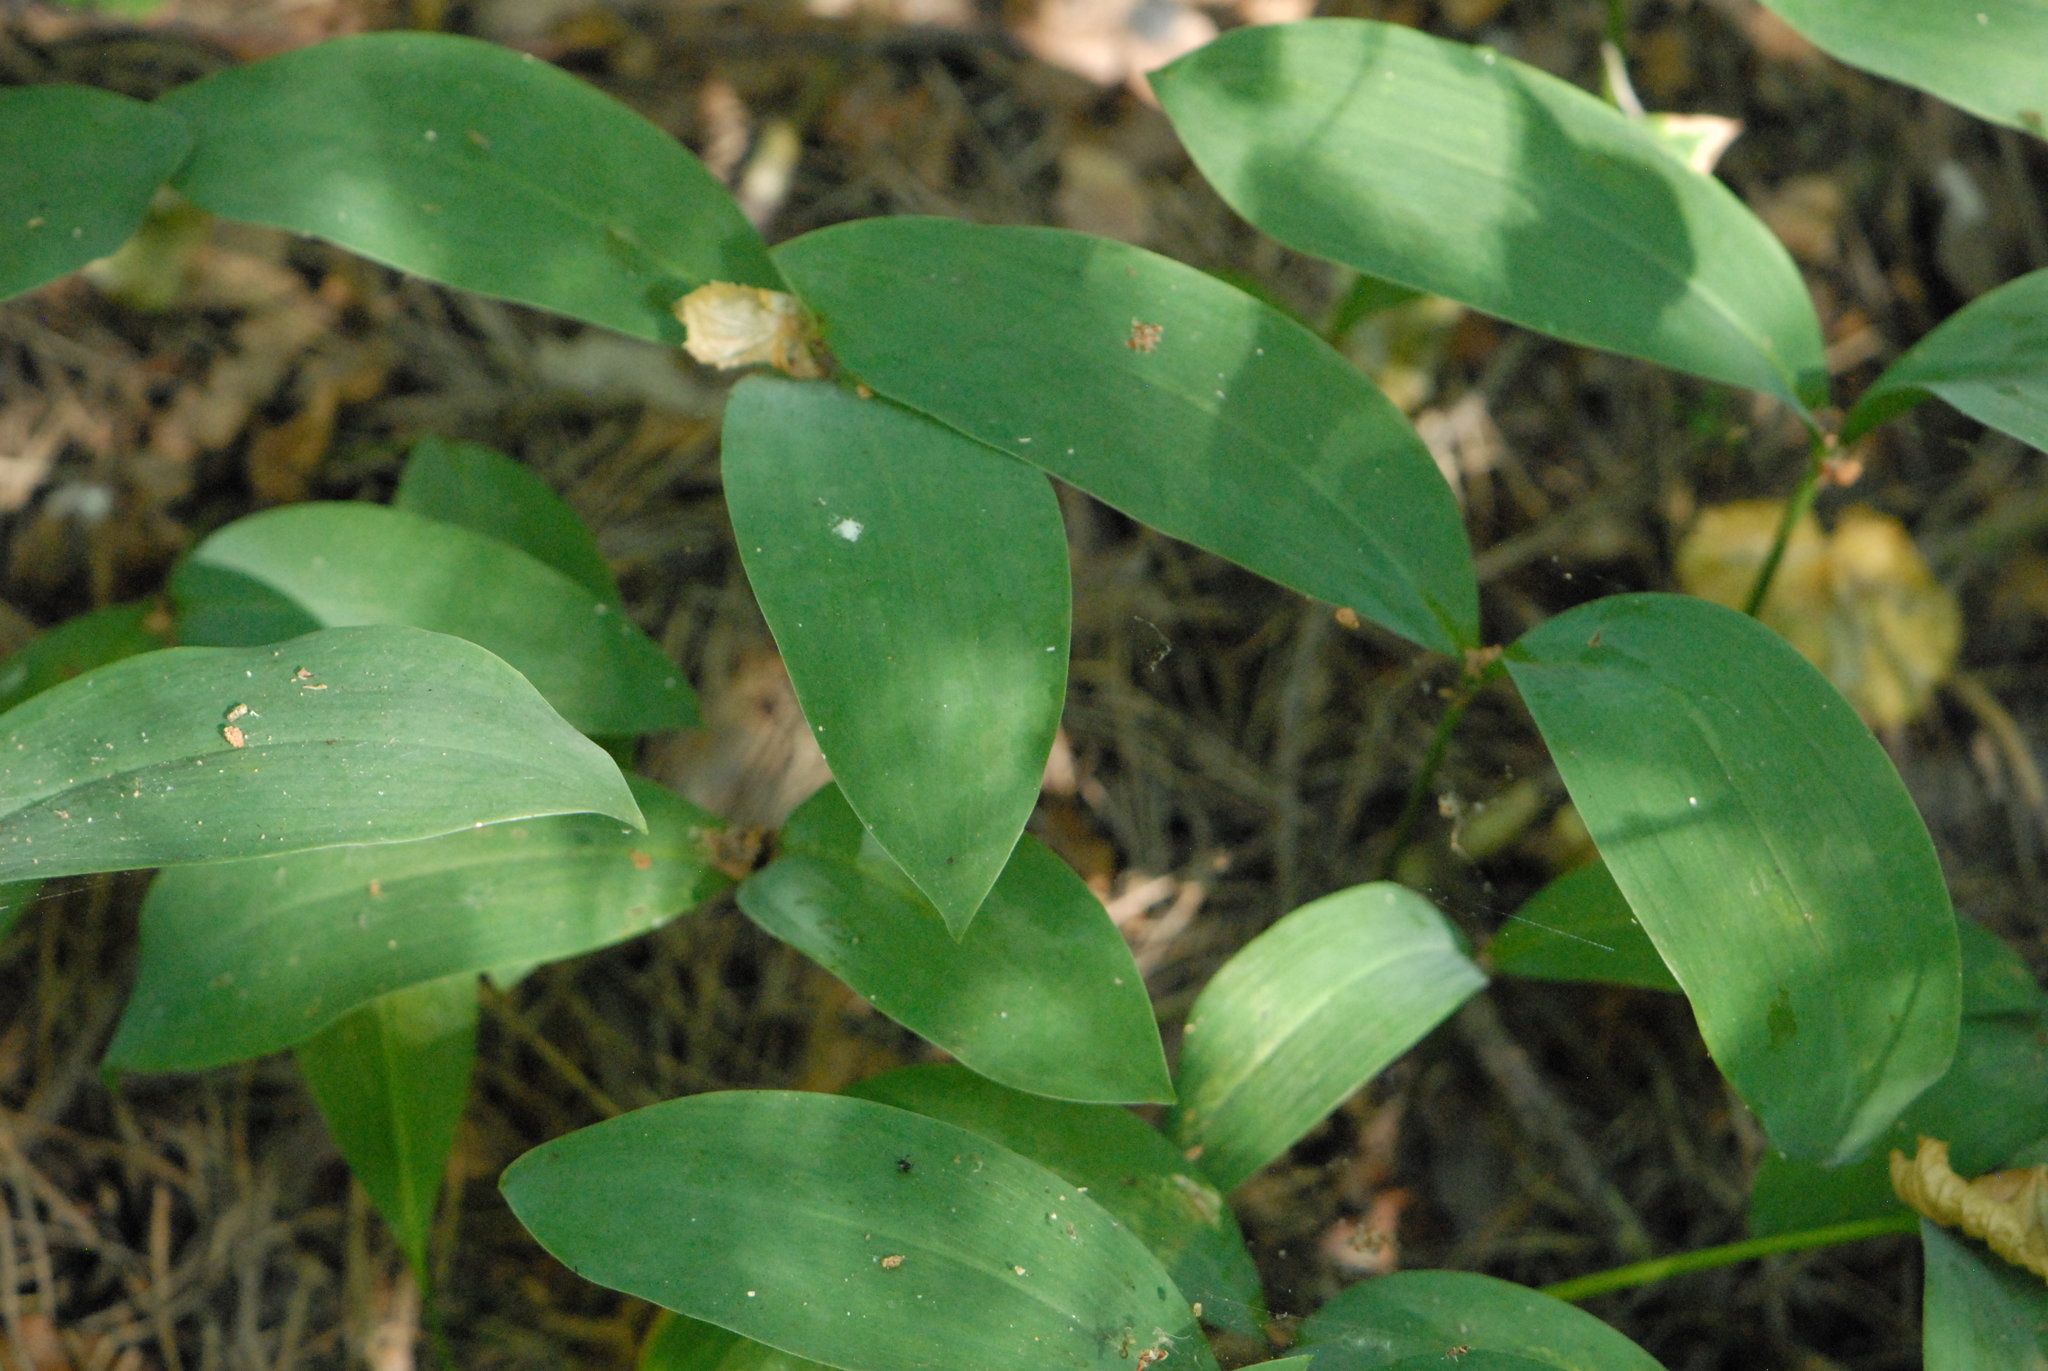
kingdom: Plantae
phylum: Tracheophyta
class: Liliopsida
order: Asparagales
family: Asparagaceae
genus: Convallaria
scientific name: Convallaria majalis
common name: Lily-of-the-valley
